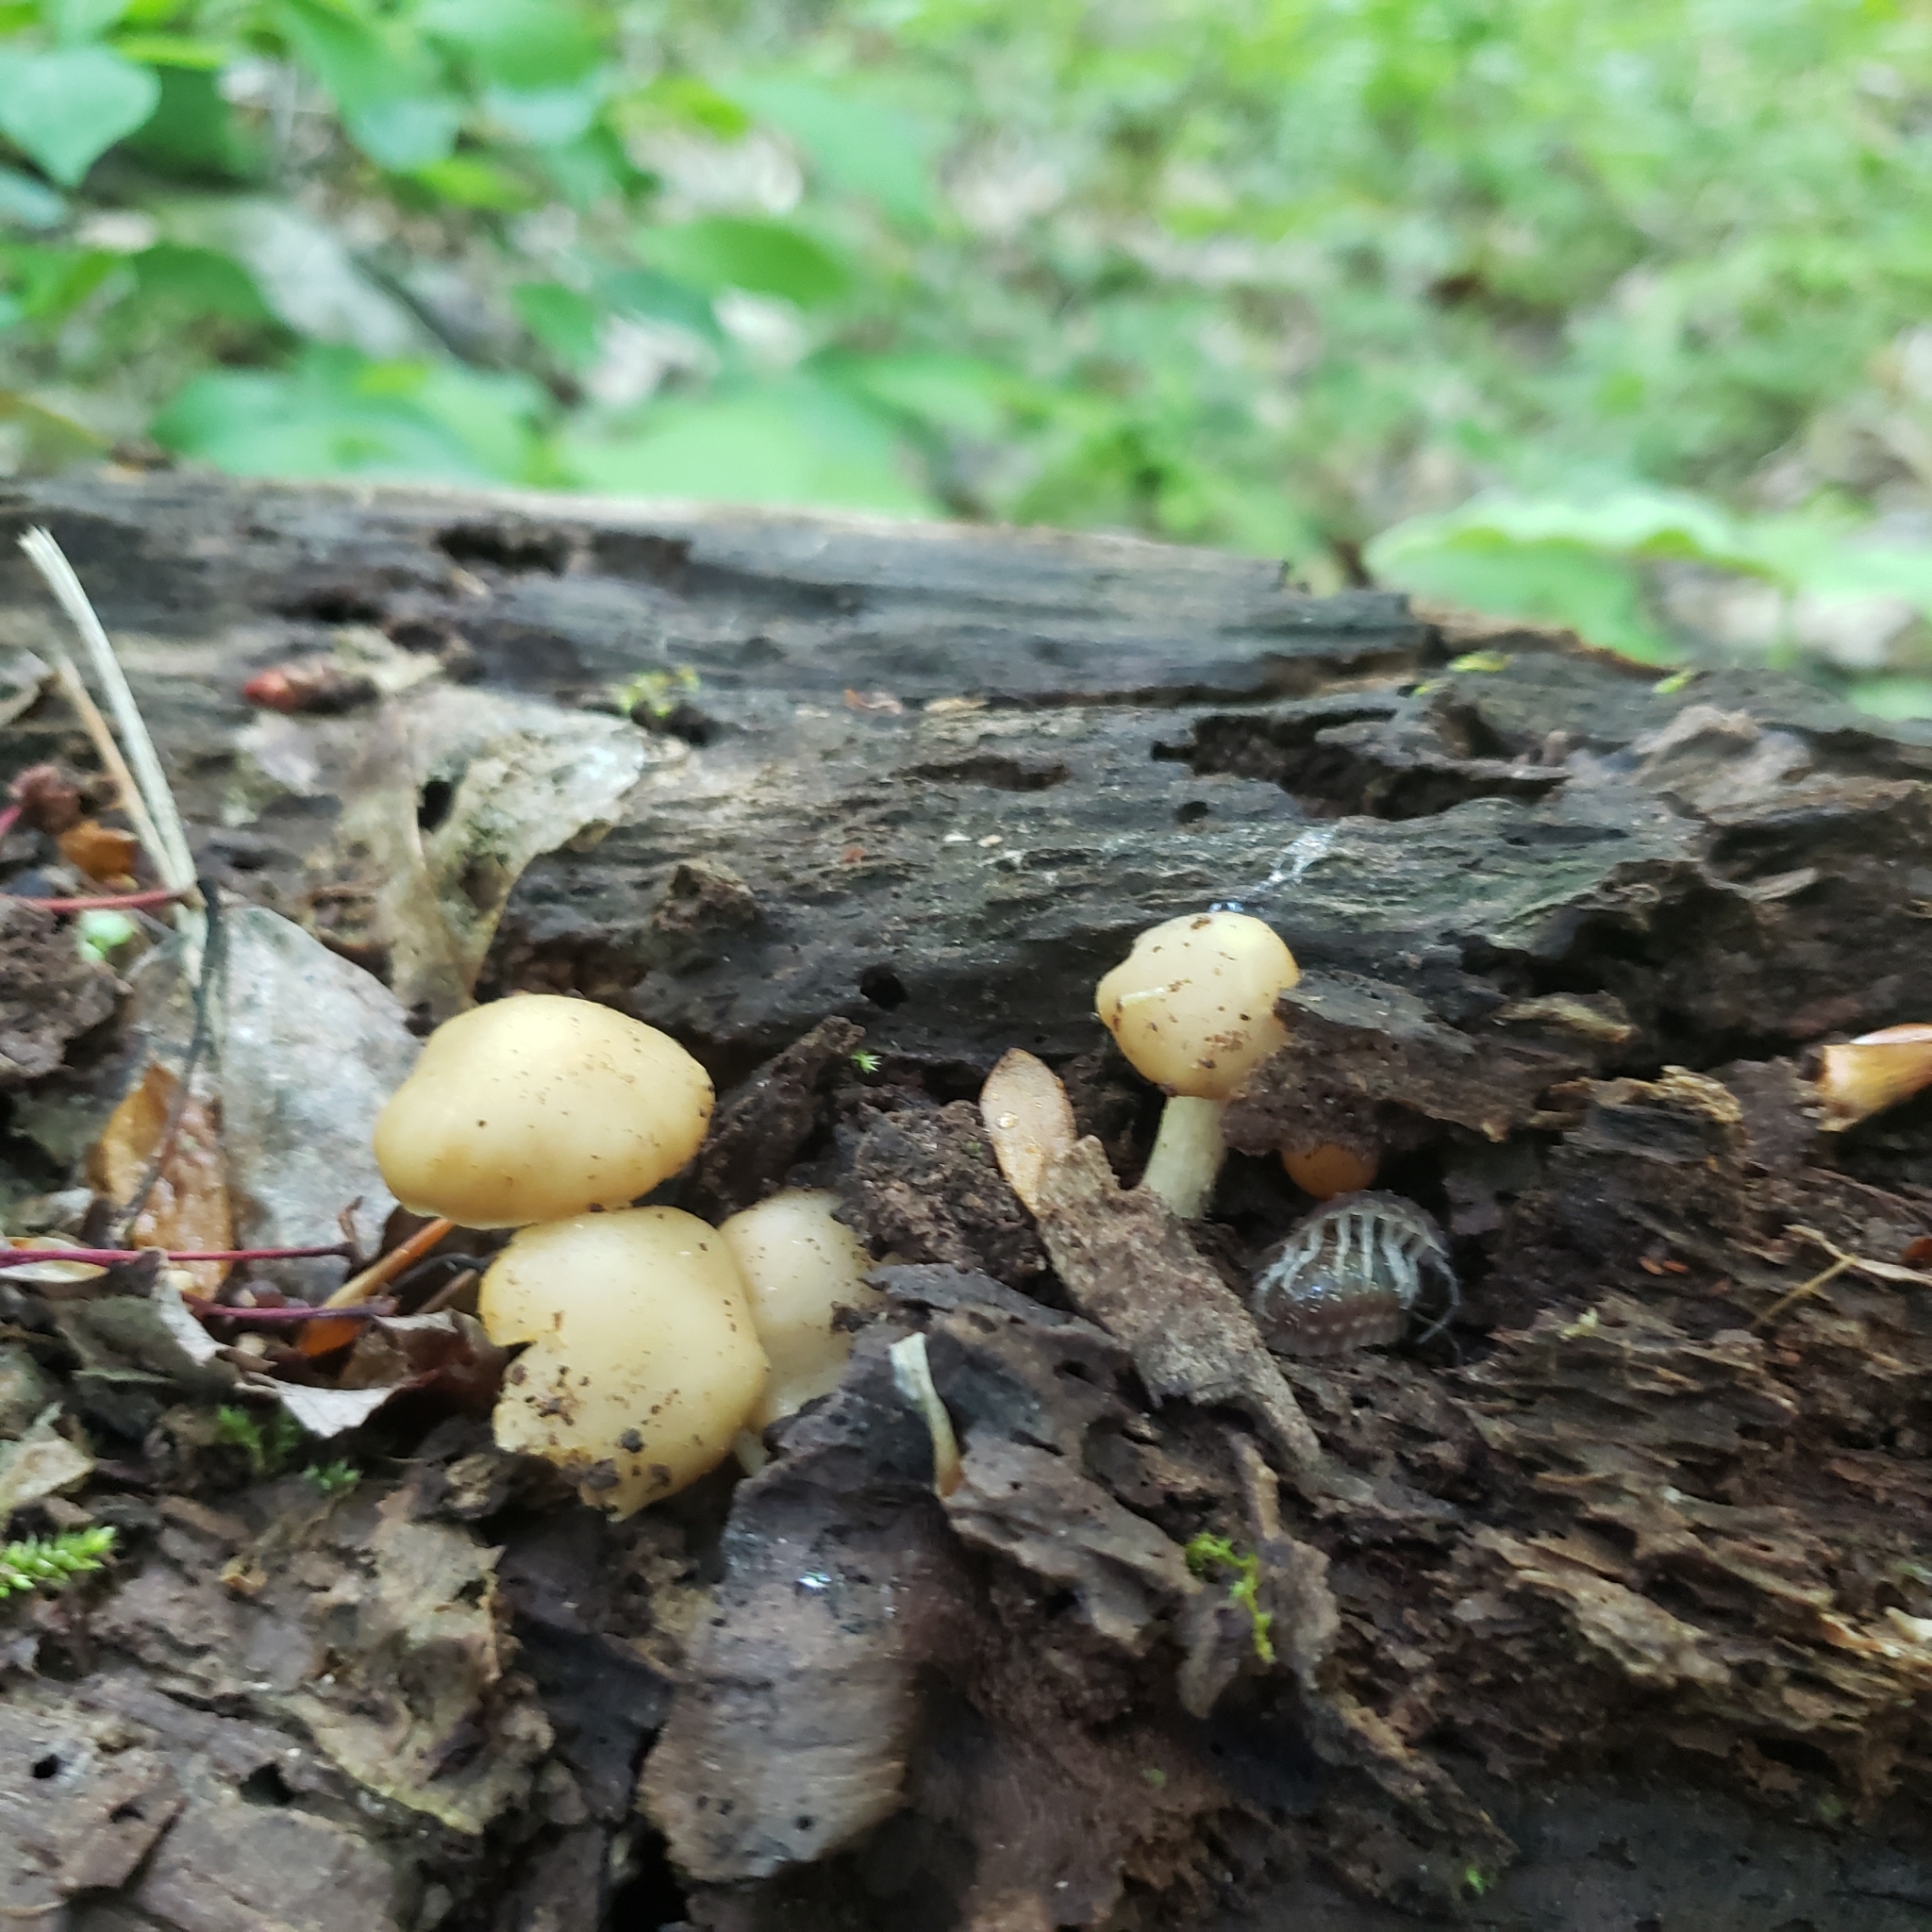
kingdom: Fungi
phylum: Basidiomycota
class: Agaricomycetes
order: Agaricales
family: Strophariaceae
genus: Kuehneromyces
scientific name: Kuehneromyces marginellus
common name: Sheathed woodtuft
